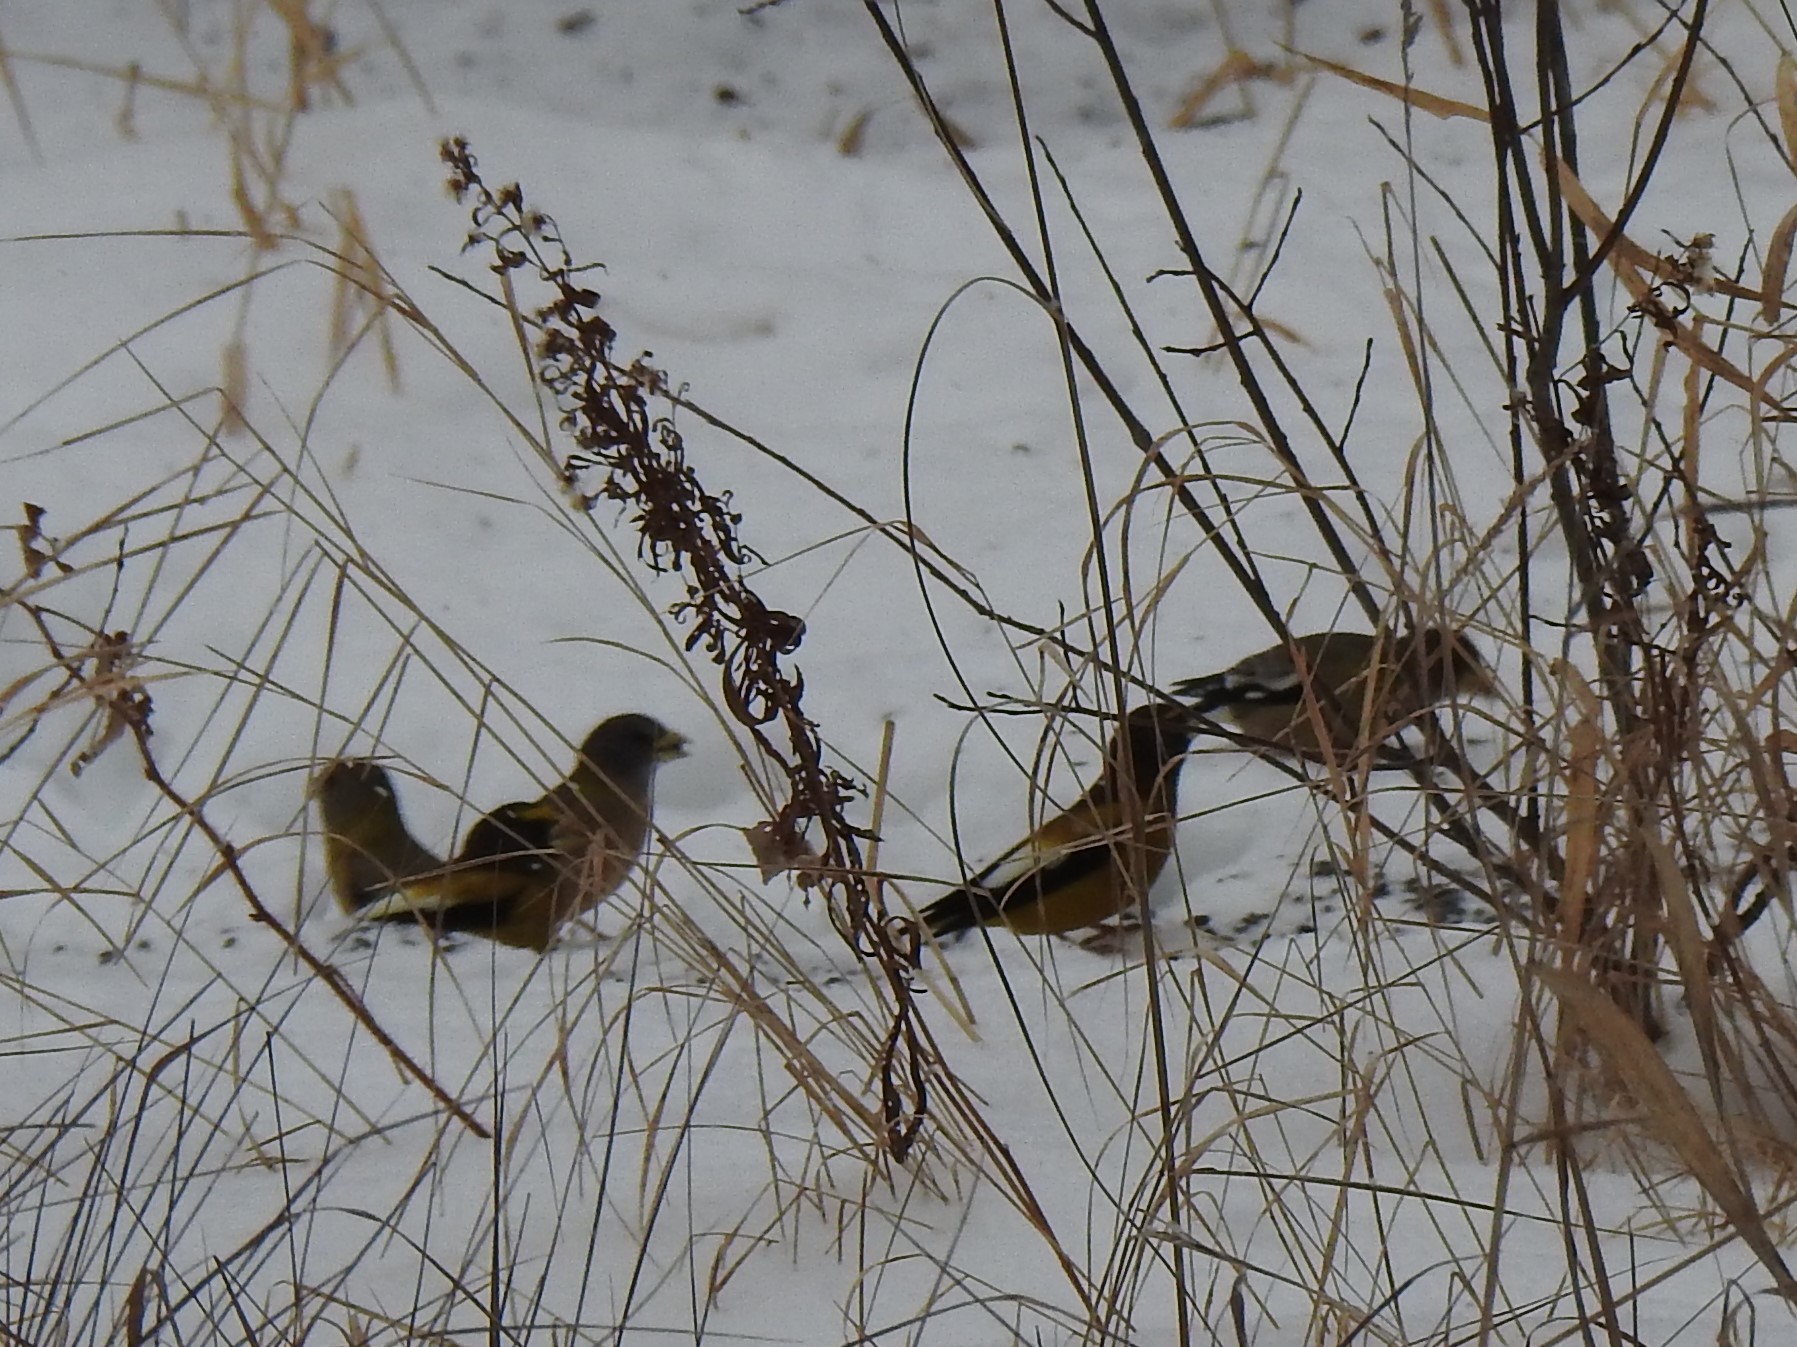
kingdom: Animalia
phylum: Chordata
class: Aves
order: Passeriformes
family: Fringillidae
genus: Hesperiphona
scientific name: Hesperiphona vespertina
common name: Evening grosbeak
